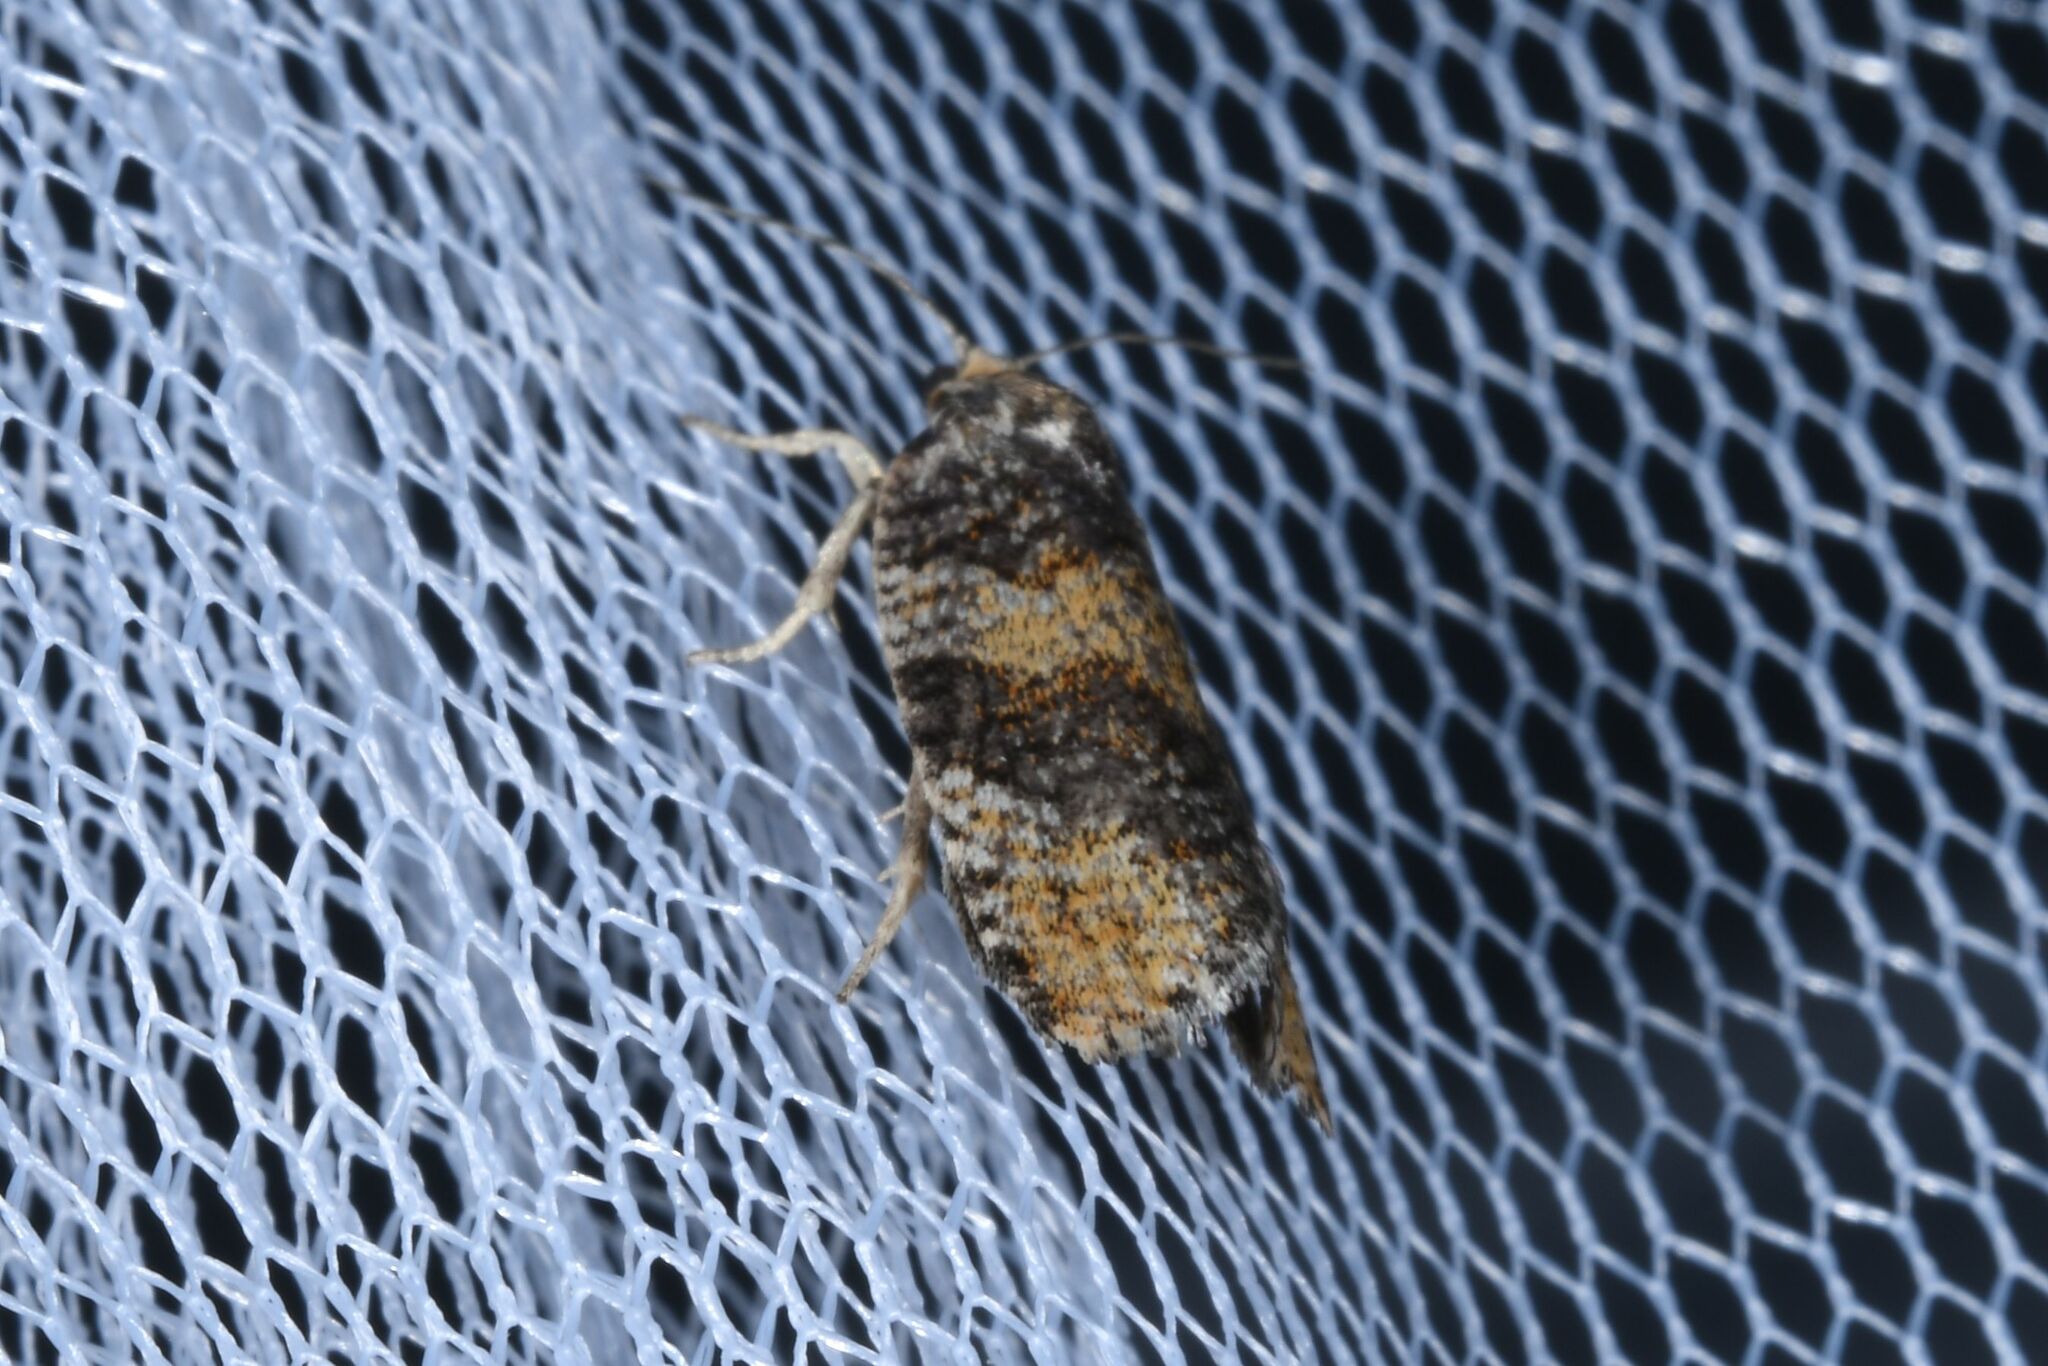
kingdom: Animalia
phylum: Arthropoda
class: Insecta
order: Lepidoptera
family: Tortricidae
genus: Ptycholomoides
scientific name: Ptycholomoides aeriferana
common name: Yellow larch tortrix
